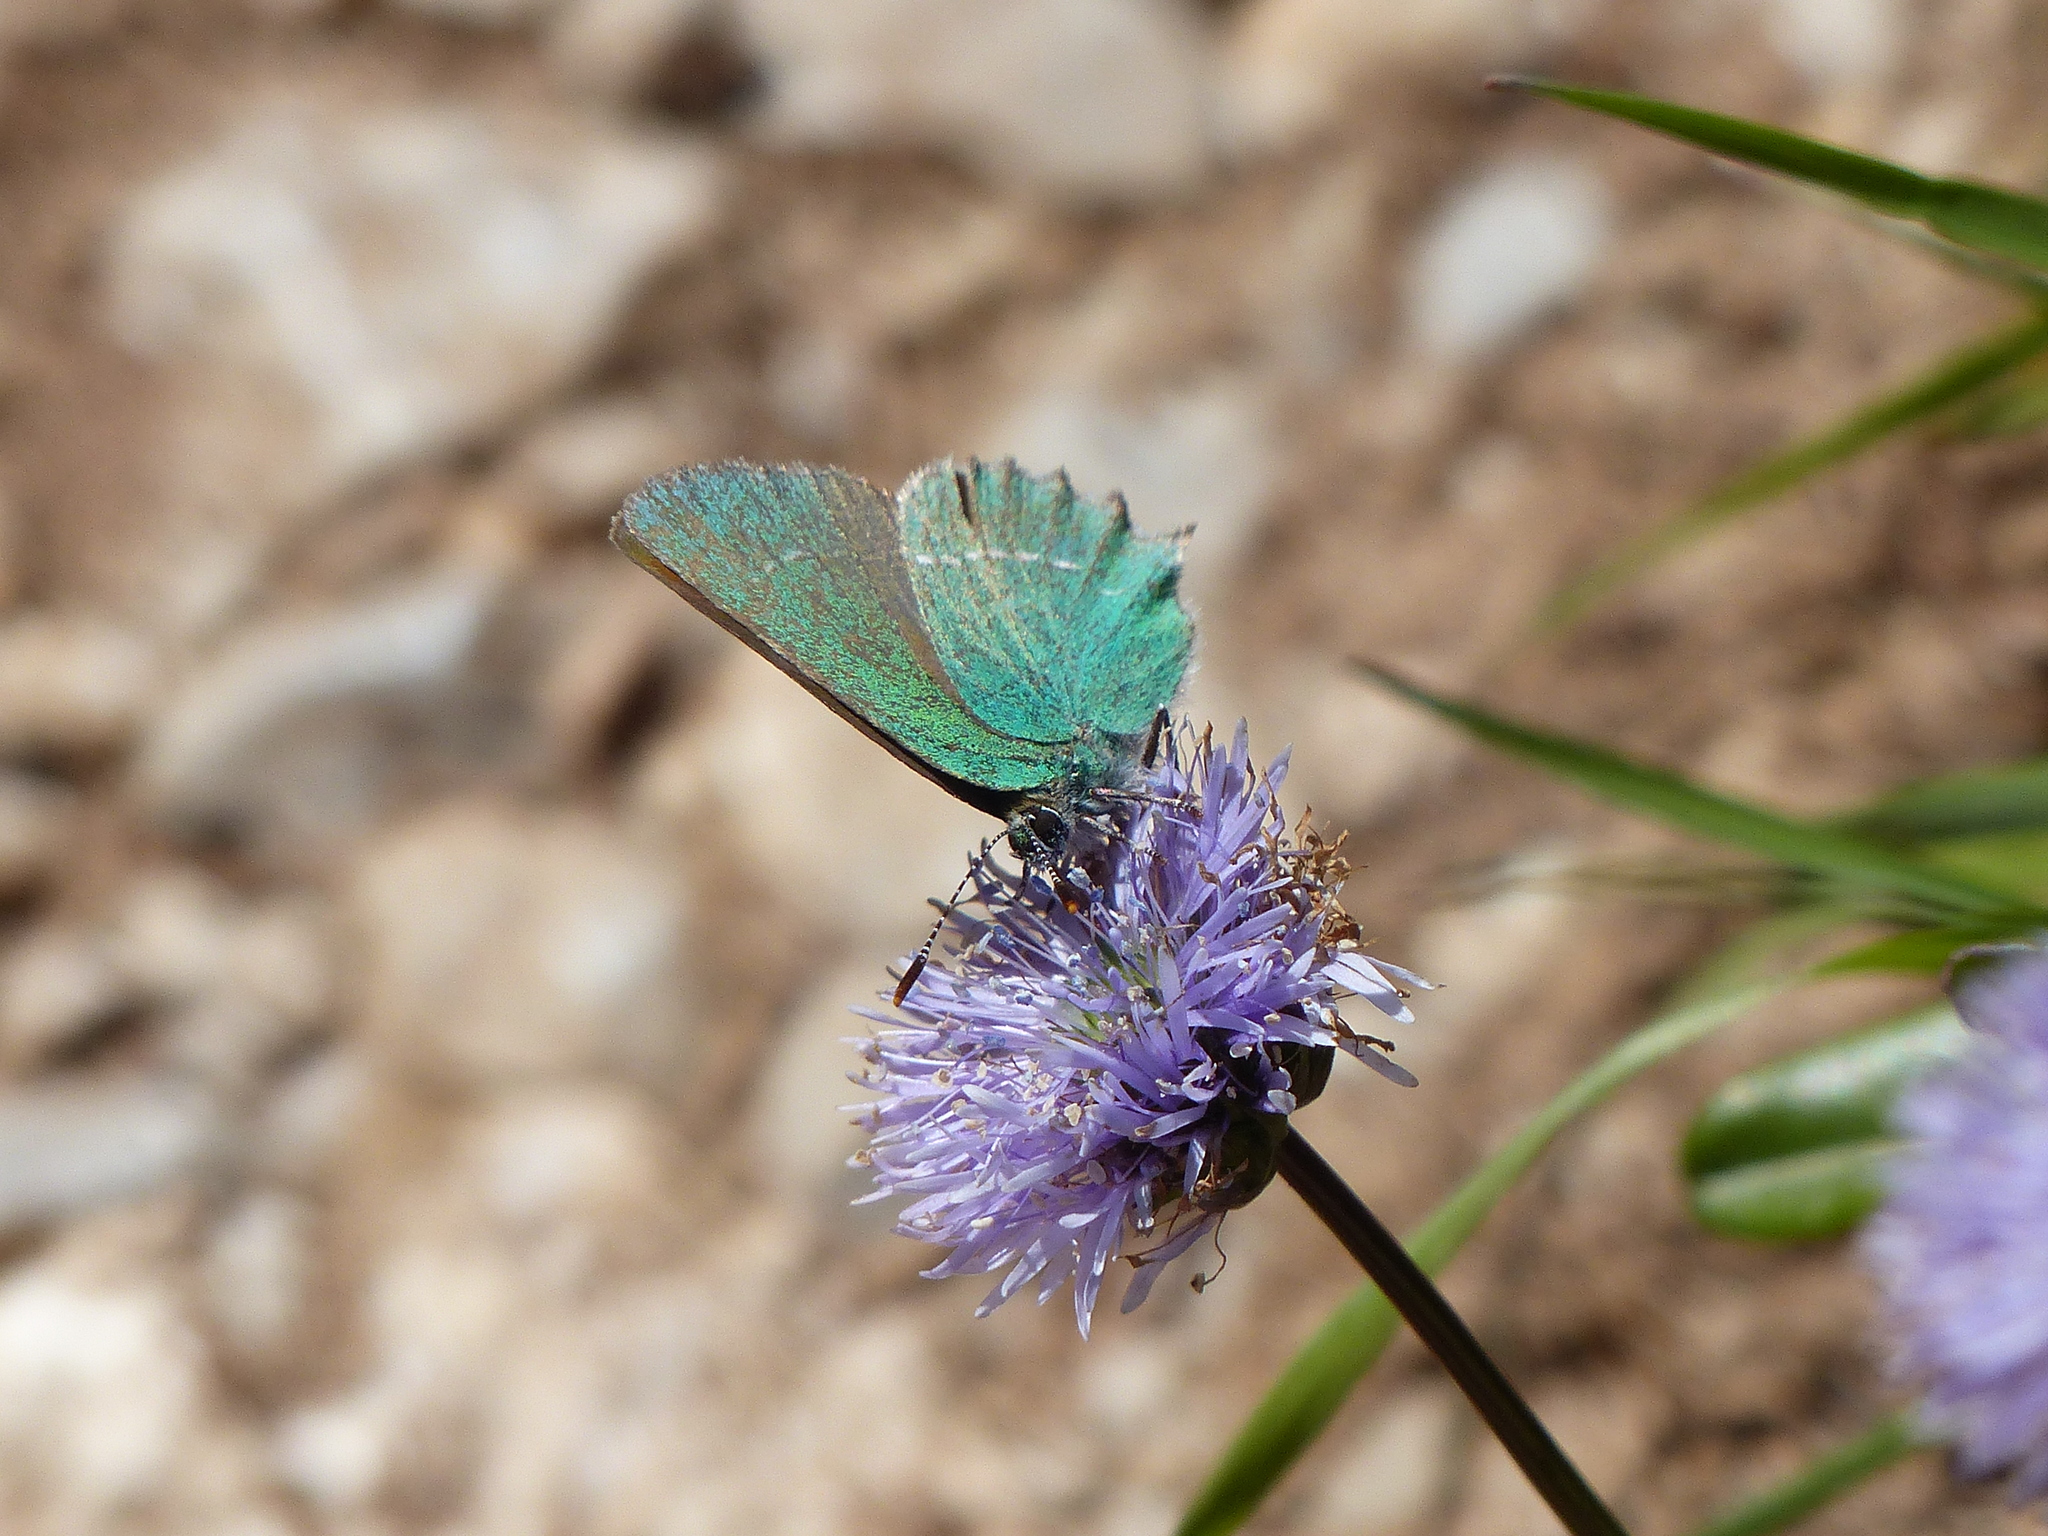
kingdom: Animalia
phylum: Arthropoda
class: Insecta
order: Lepidoptera
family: Lycaenidae
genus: Callophrys
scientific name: Callophrys rubi
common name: Green hairstreak
